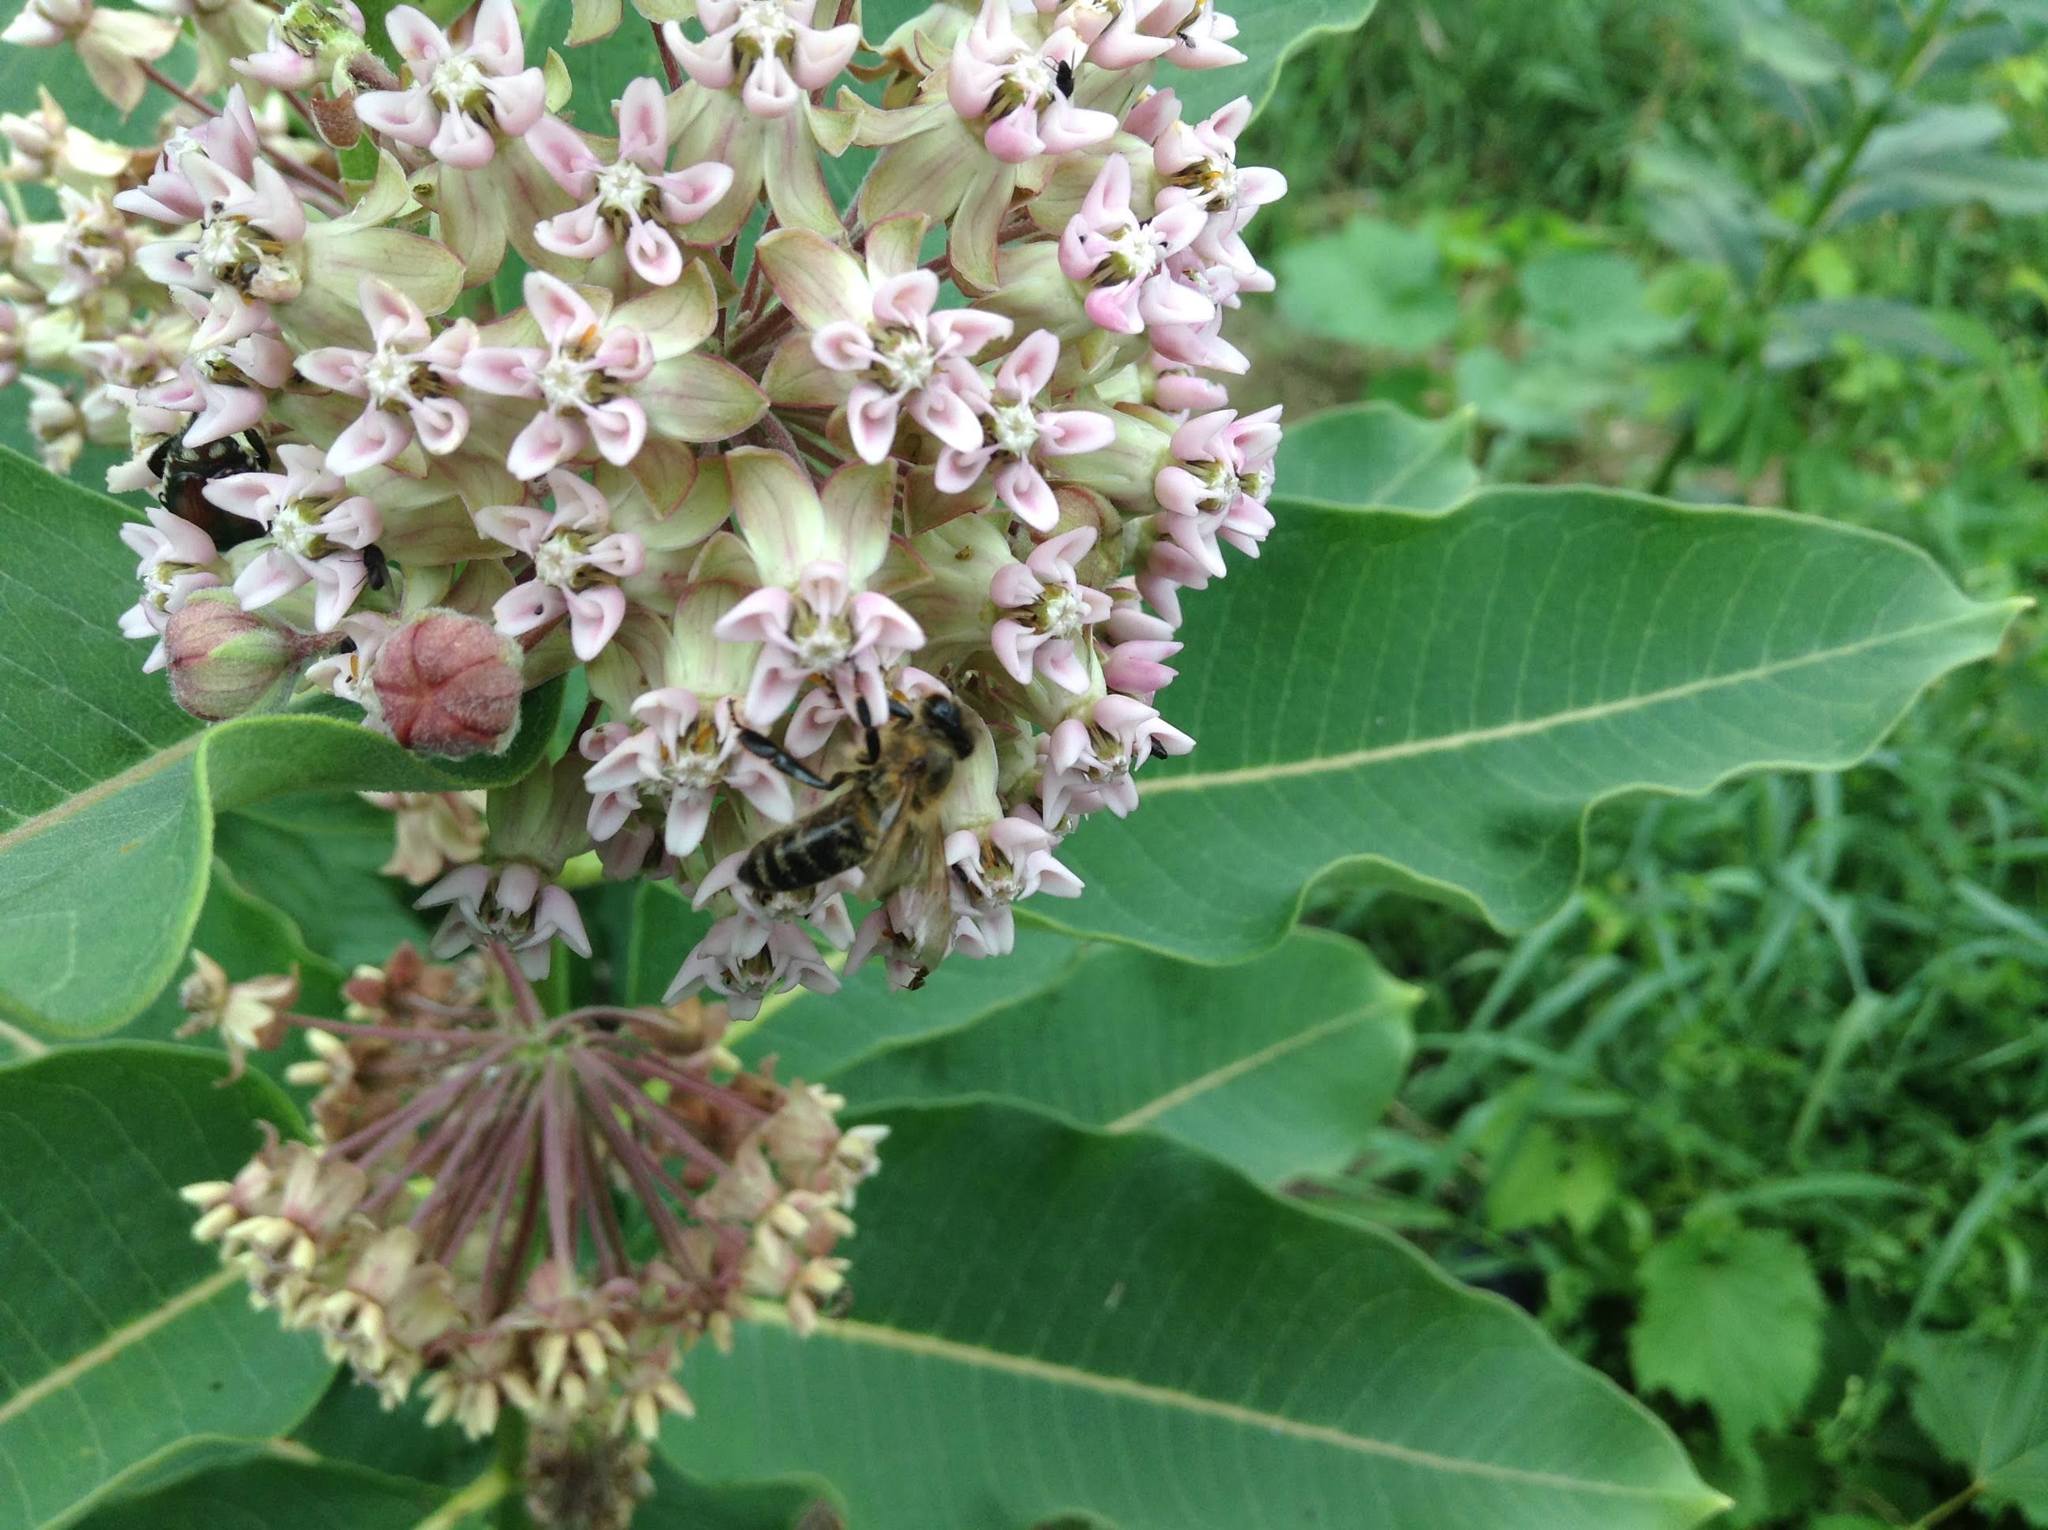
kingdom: Animalia
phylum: Arthropoda
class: Insecta
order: Hymenoptera
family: Apidae
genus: Apis
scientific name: Apis mellifera
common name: Honey bee
